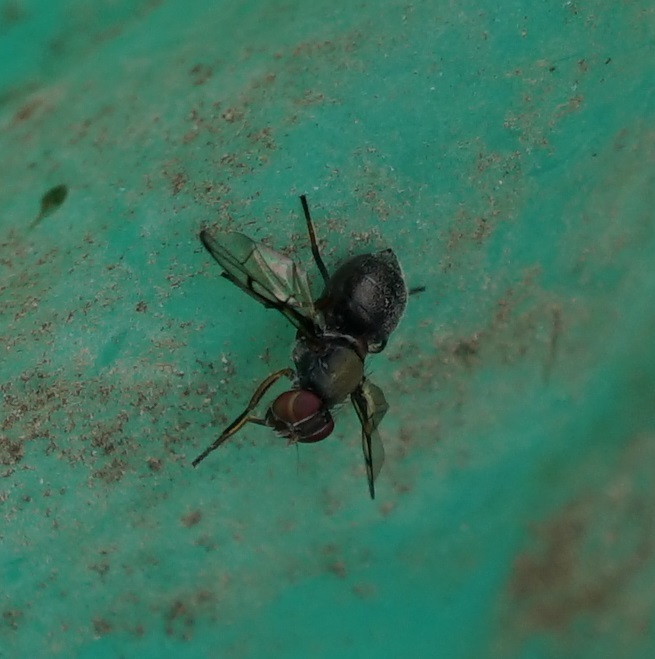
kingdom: Animalia
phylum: Arthropoda
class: Insecta
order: Diptera
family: Platystomatidae
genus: Pogonortalis
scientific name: Pogonortalis doclea
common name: Boatman fly
